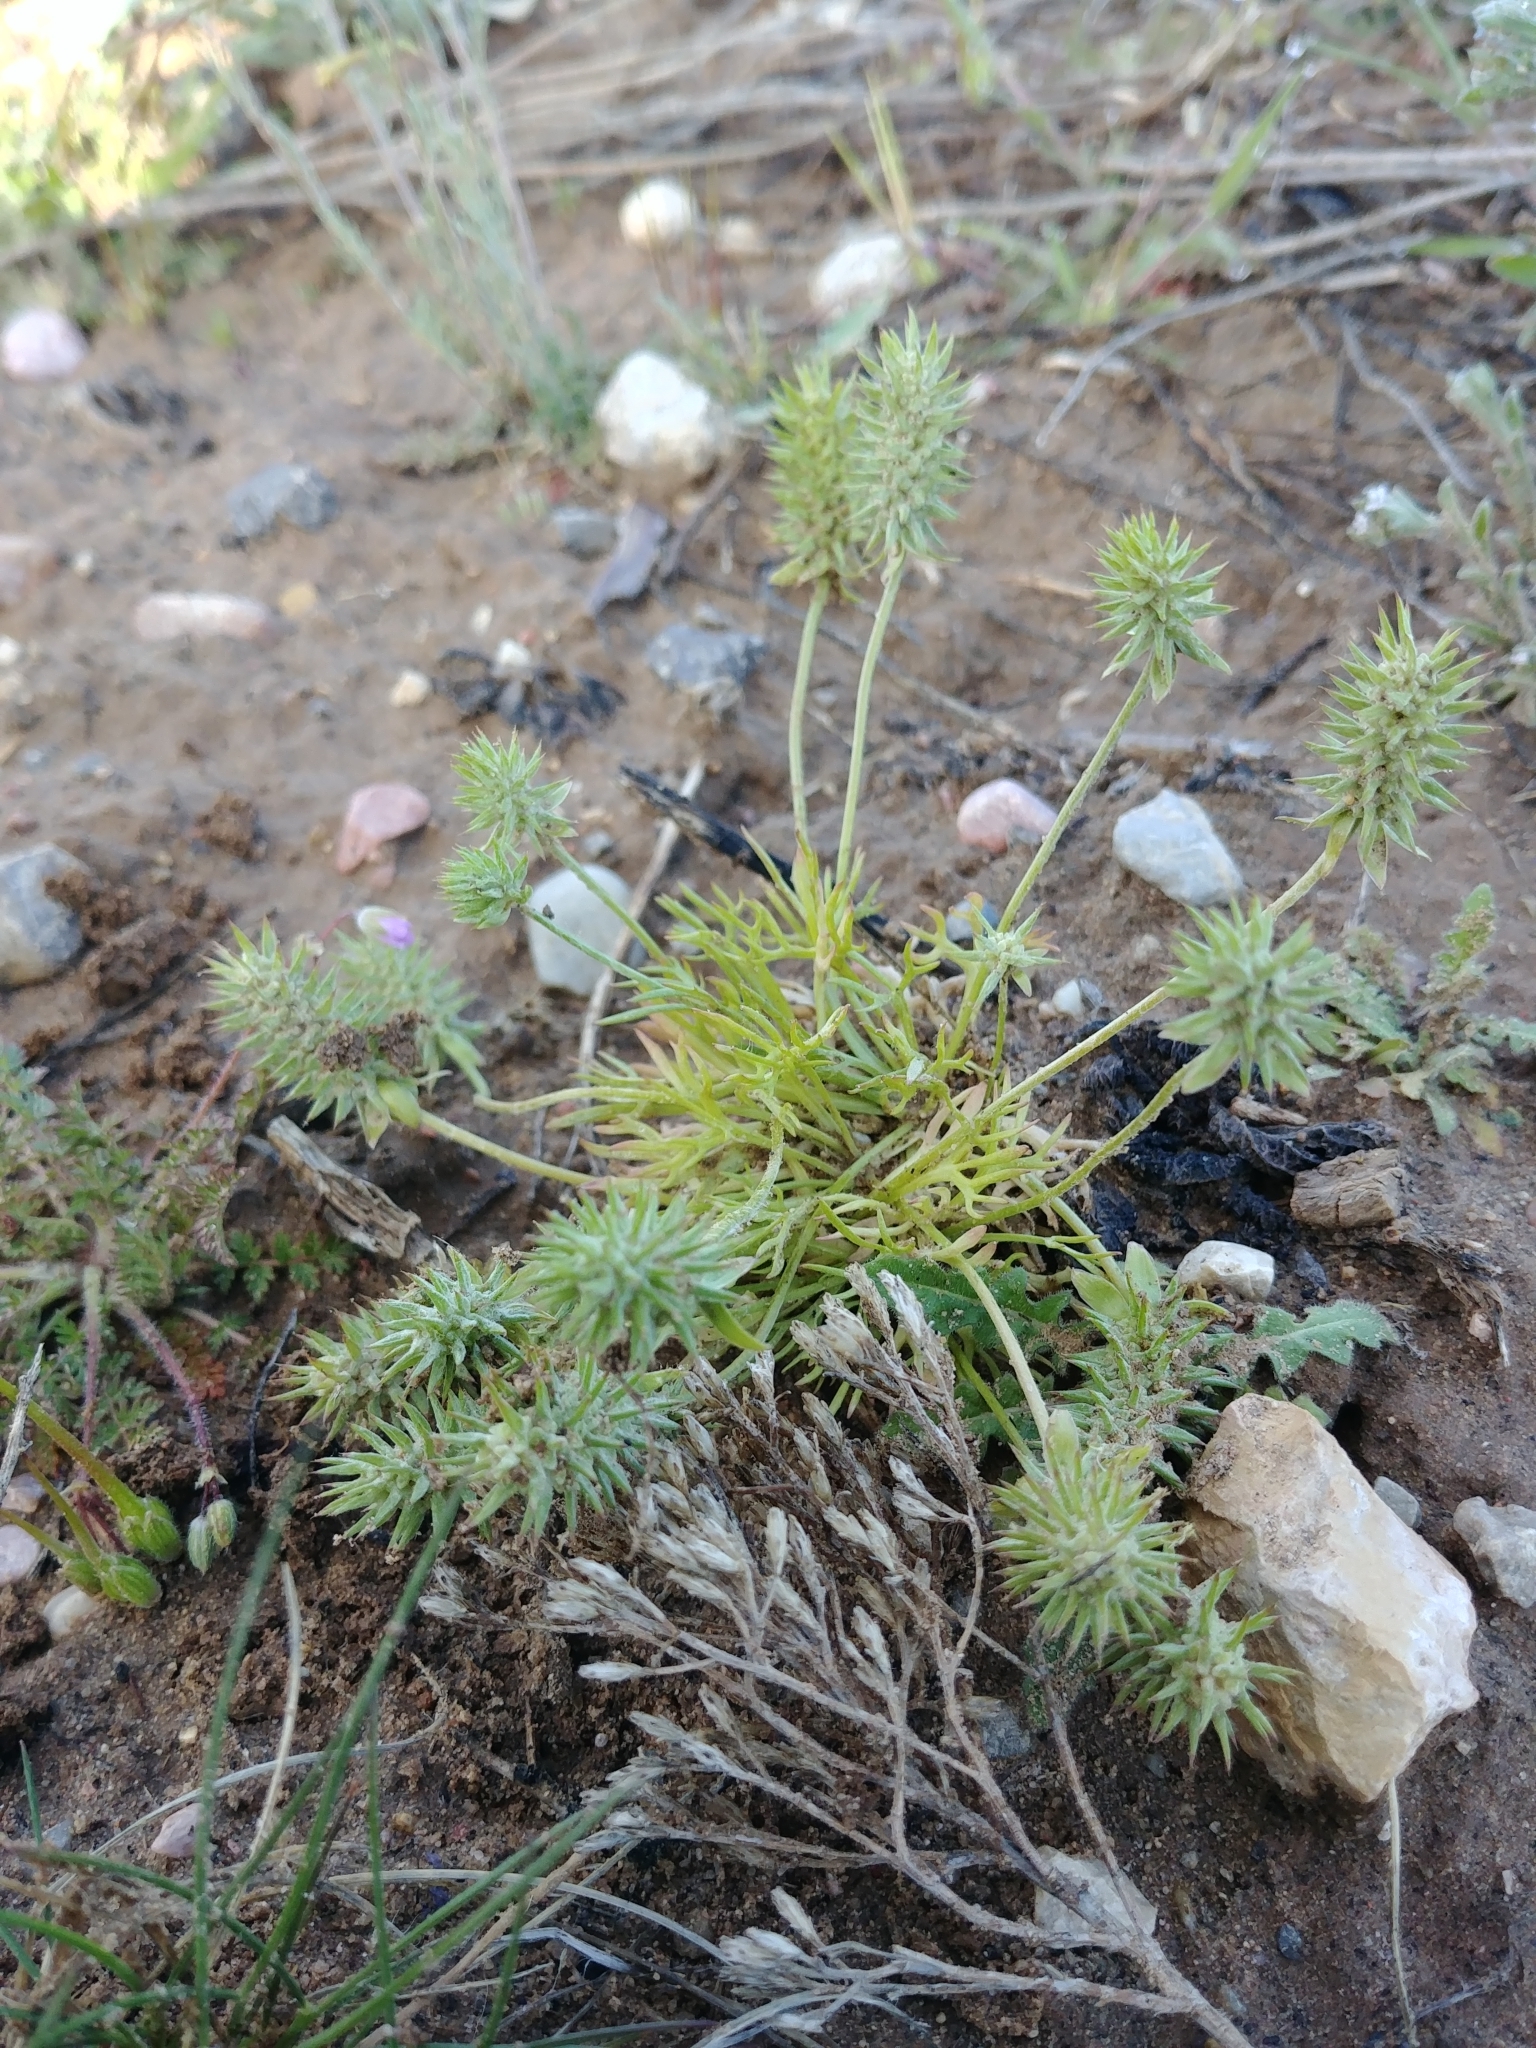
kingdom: Plantae
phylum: Tracheophyta
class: Magnoliopsida
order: Ranunculales
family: Ranunculaceae
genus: Ceratocephala
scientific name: Ceratocephala orthoceras
